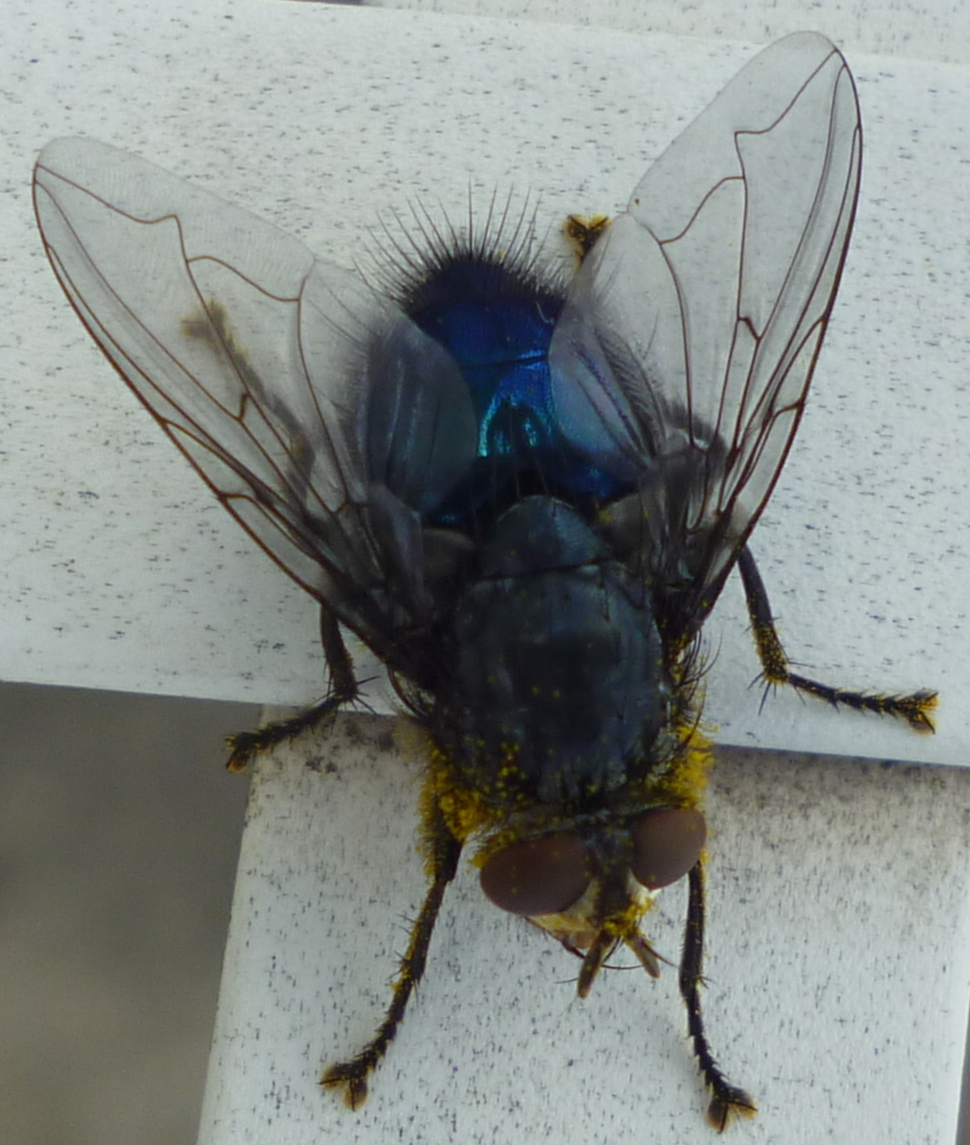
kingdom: Animalia
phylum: Arthropoda
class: Insecta
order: Diptera
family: Calliphoridae
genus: Cynomya
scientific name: Cynomya cadaverina
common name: Shiny blue bottle fly
